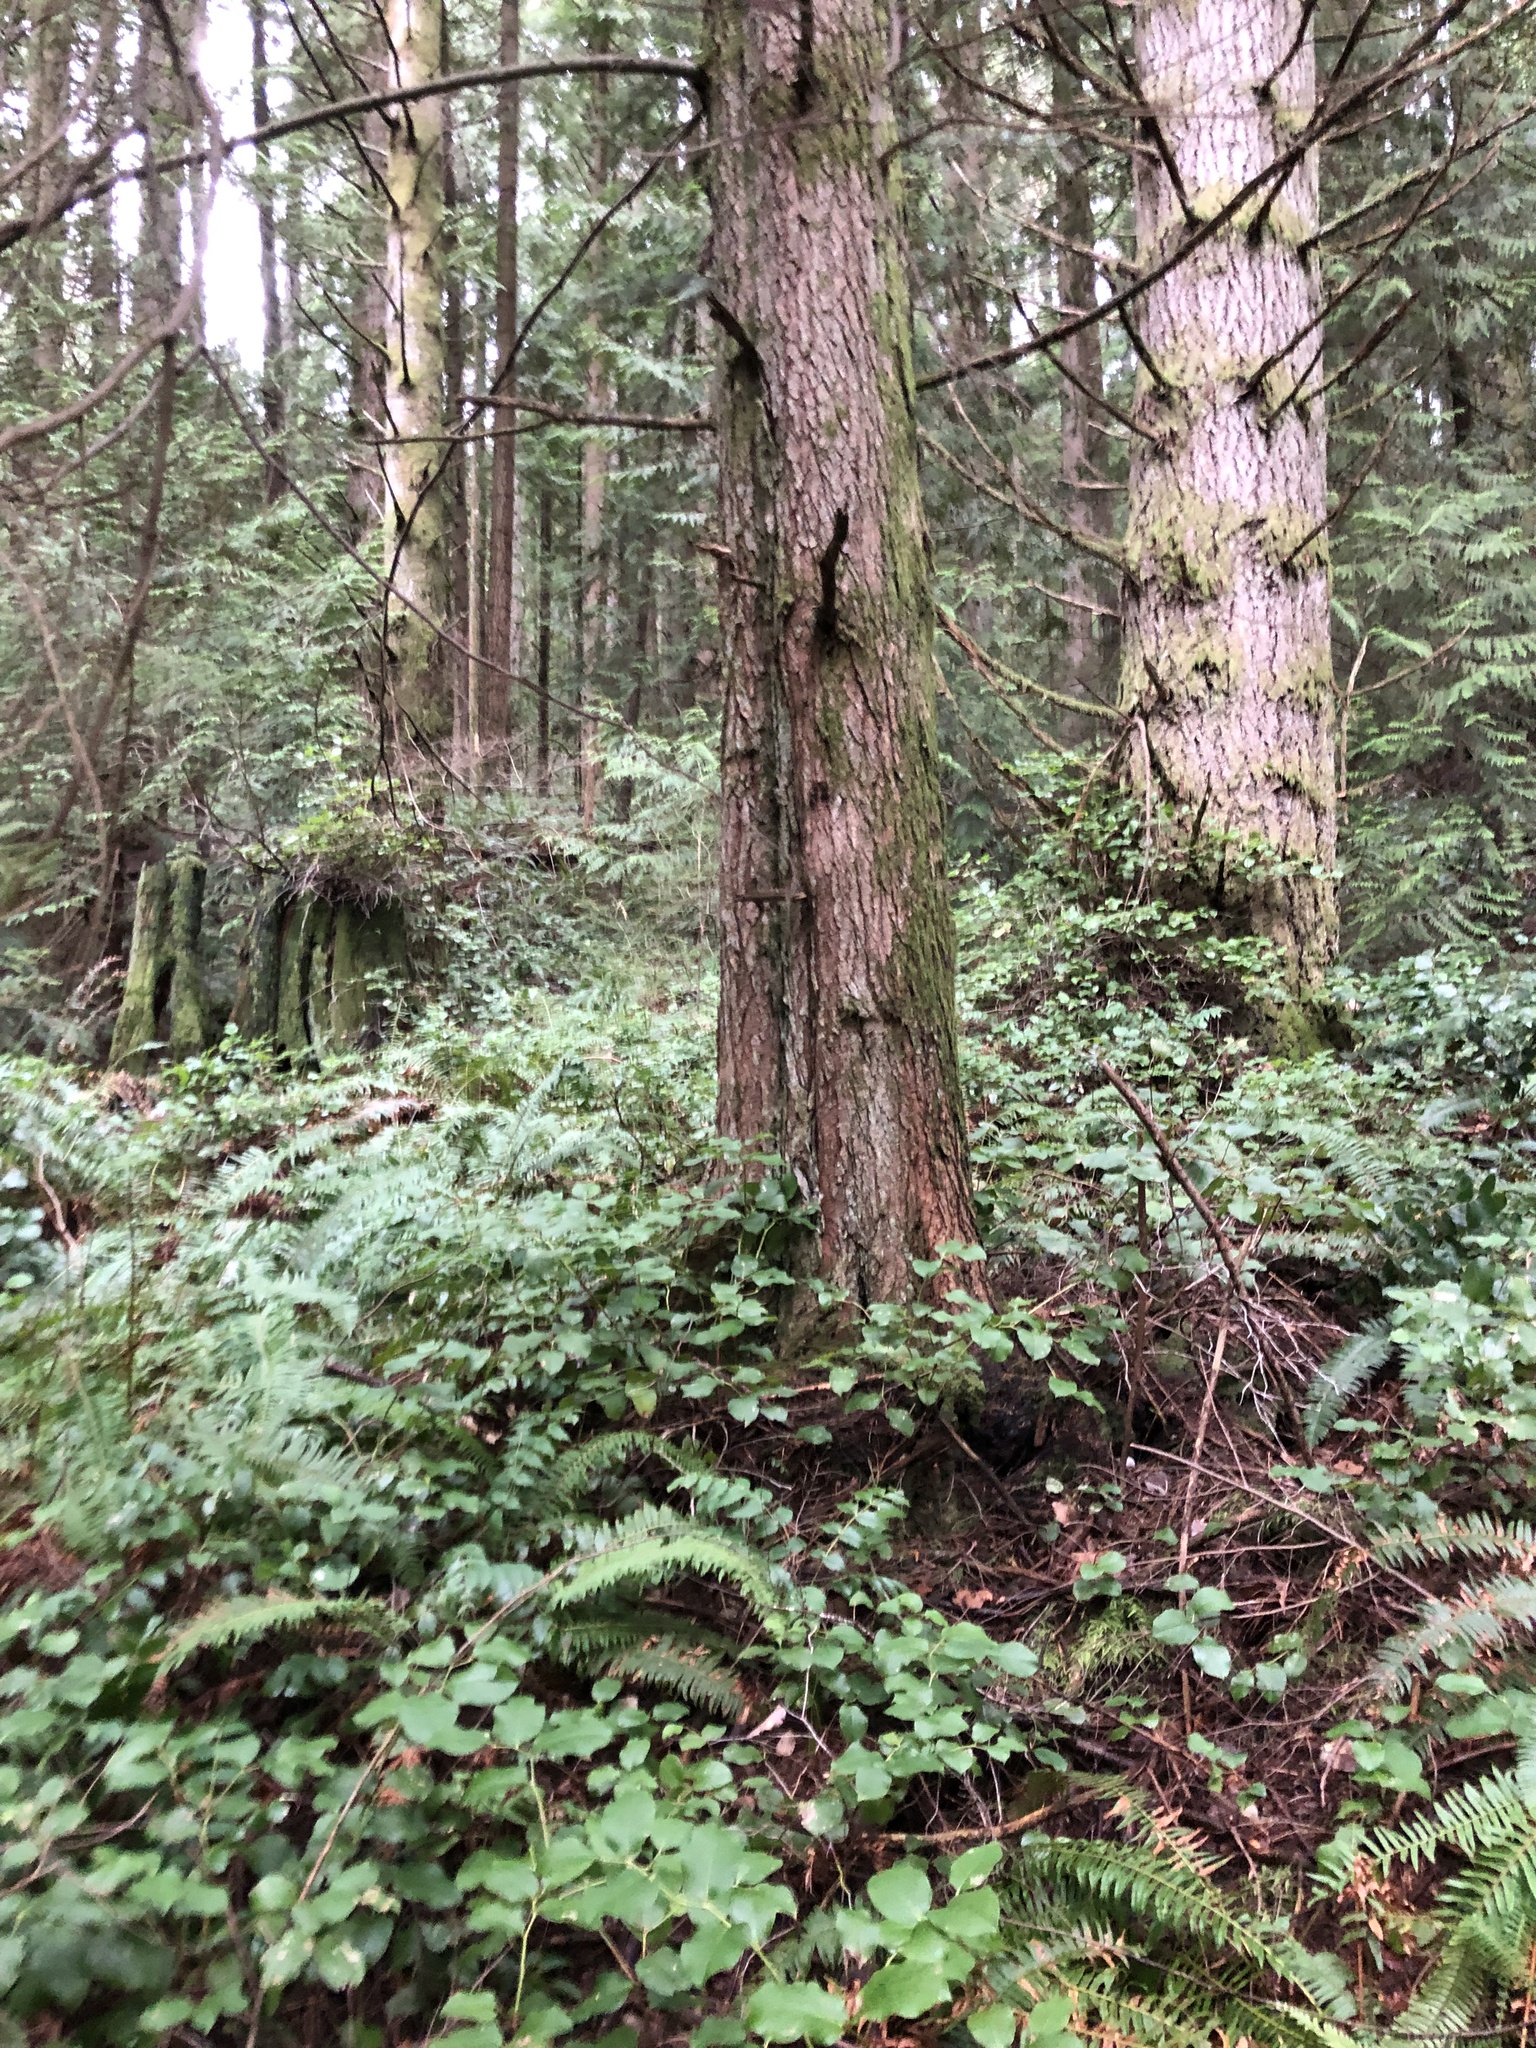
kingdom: Plantae
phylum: Tracheophyta
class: Pinopsida
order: Pinales
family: Pinaceae
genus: Tsuga
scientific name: Tsuga heterophylla
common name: Western hemlock
